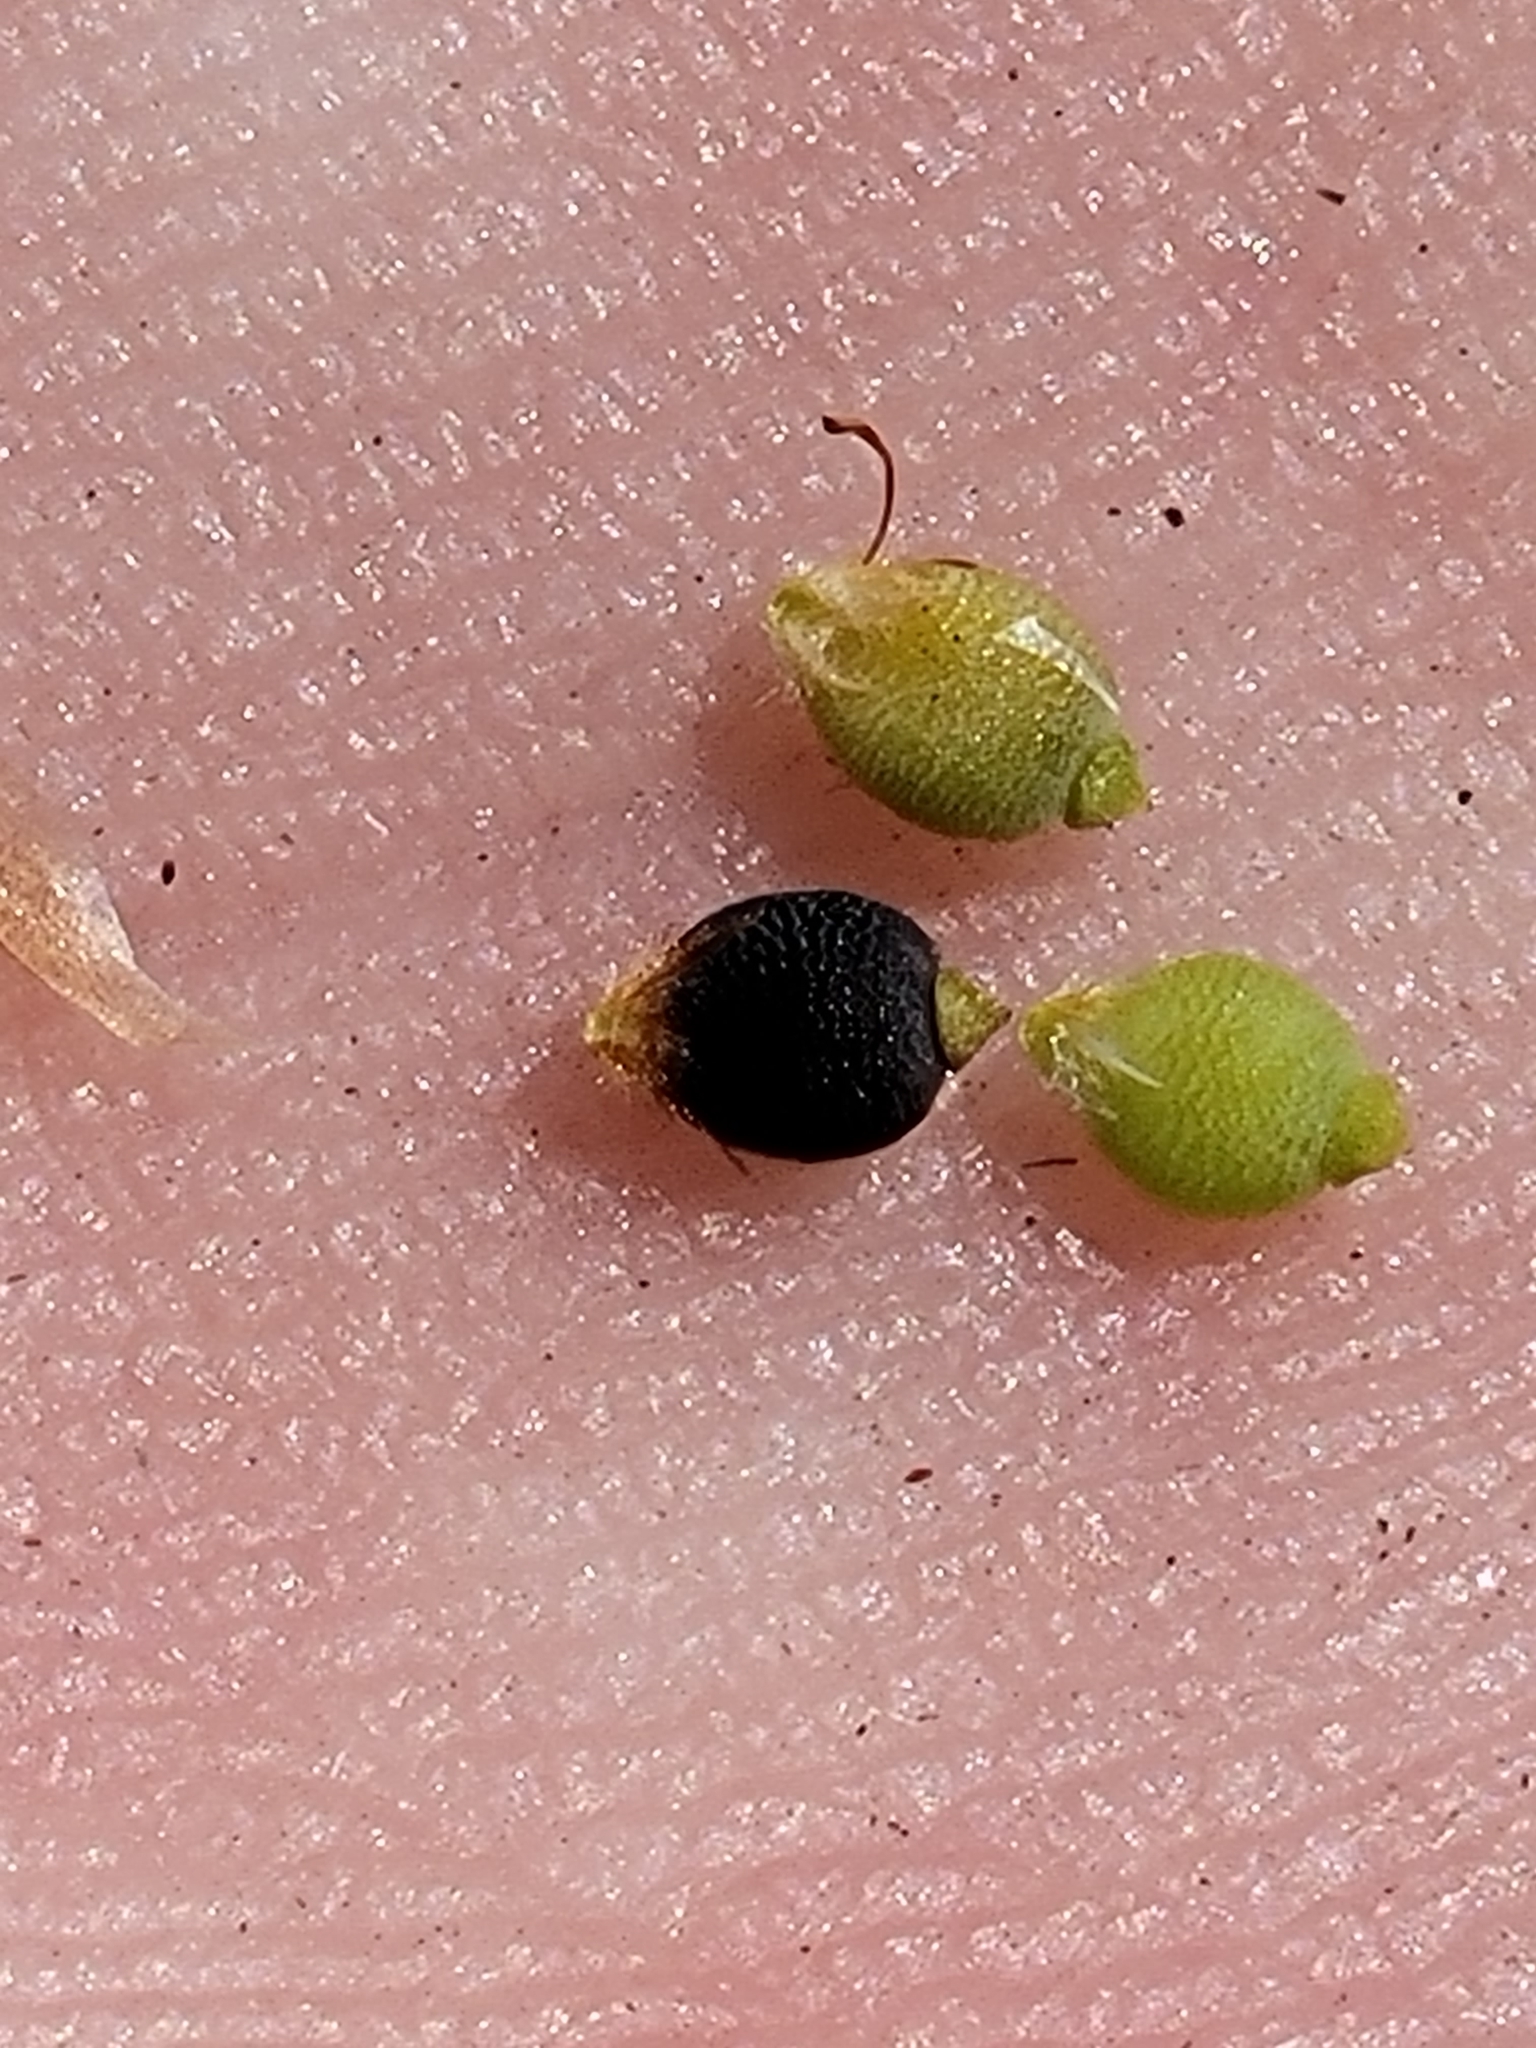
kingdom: Plantae
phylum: Tracheophyta
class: Liliopsida
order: Poales
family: Cyperaceae
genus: Rhynchospora
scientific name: Rhynchospora galeana
